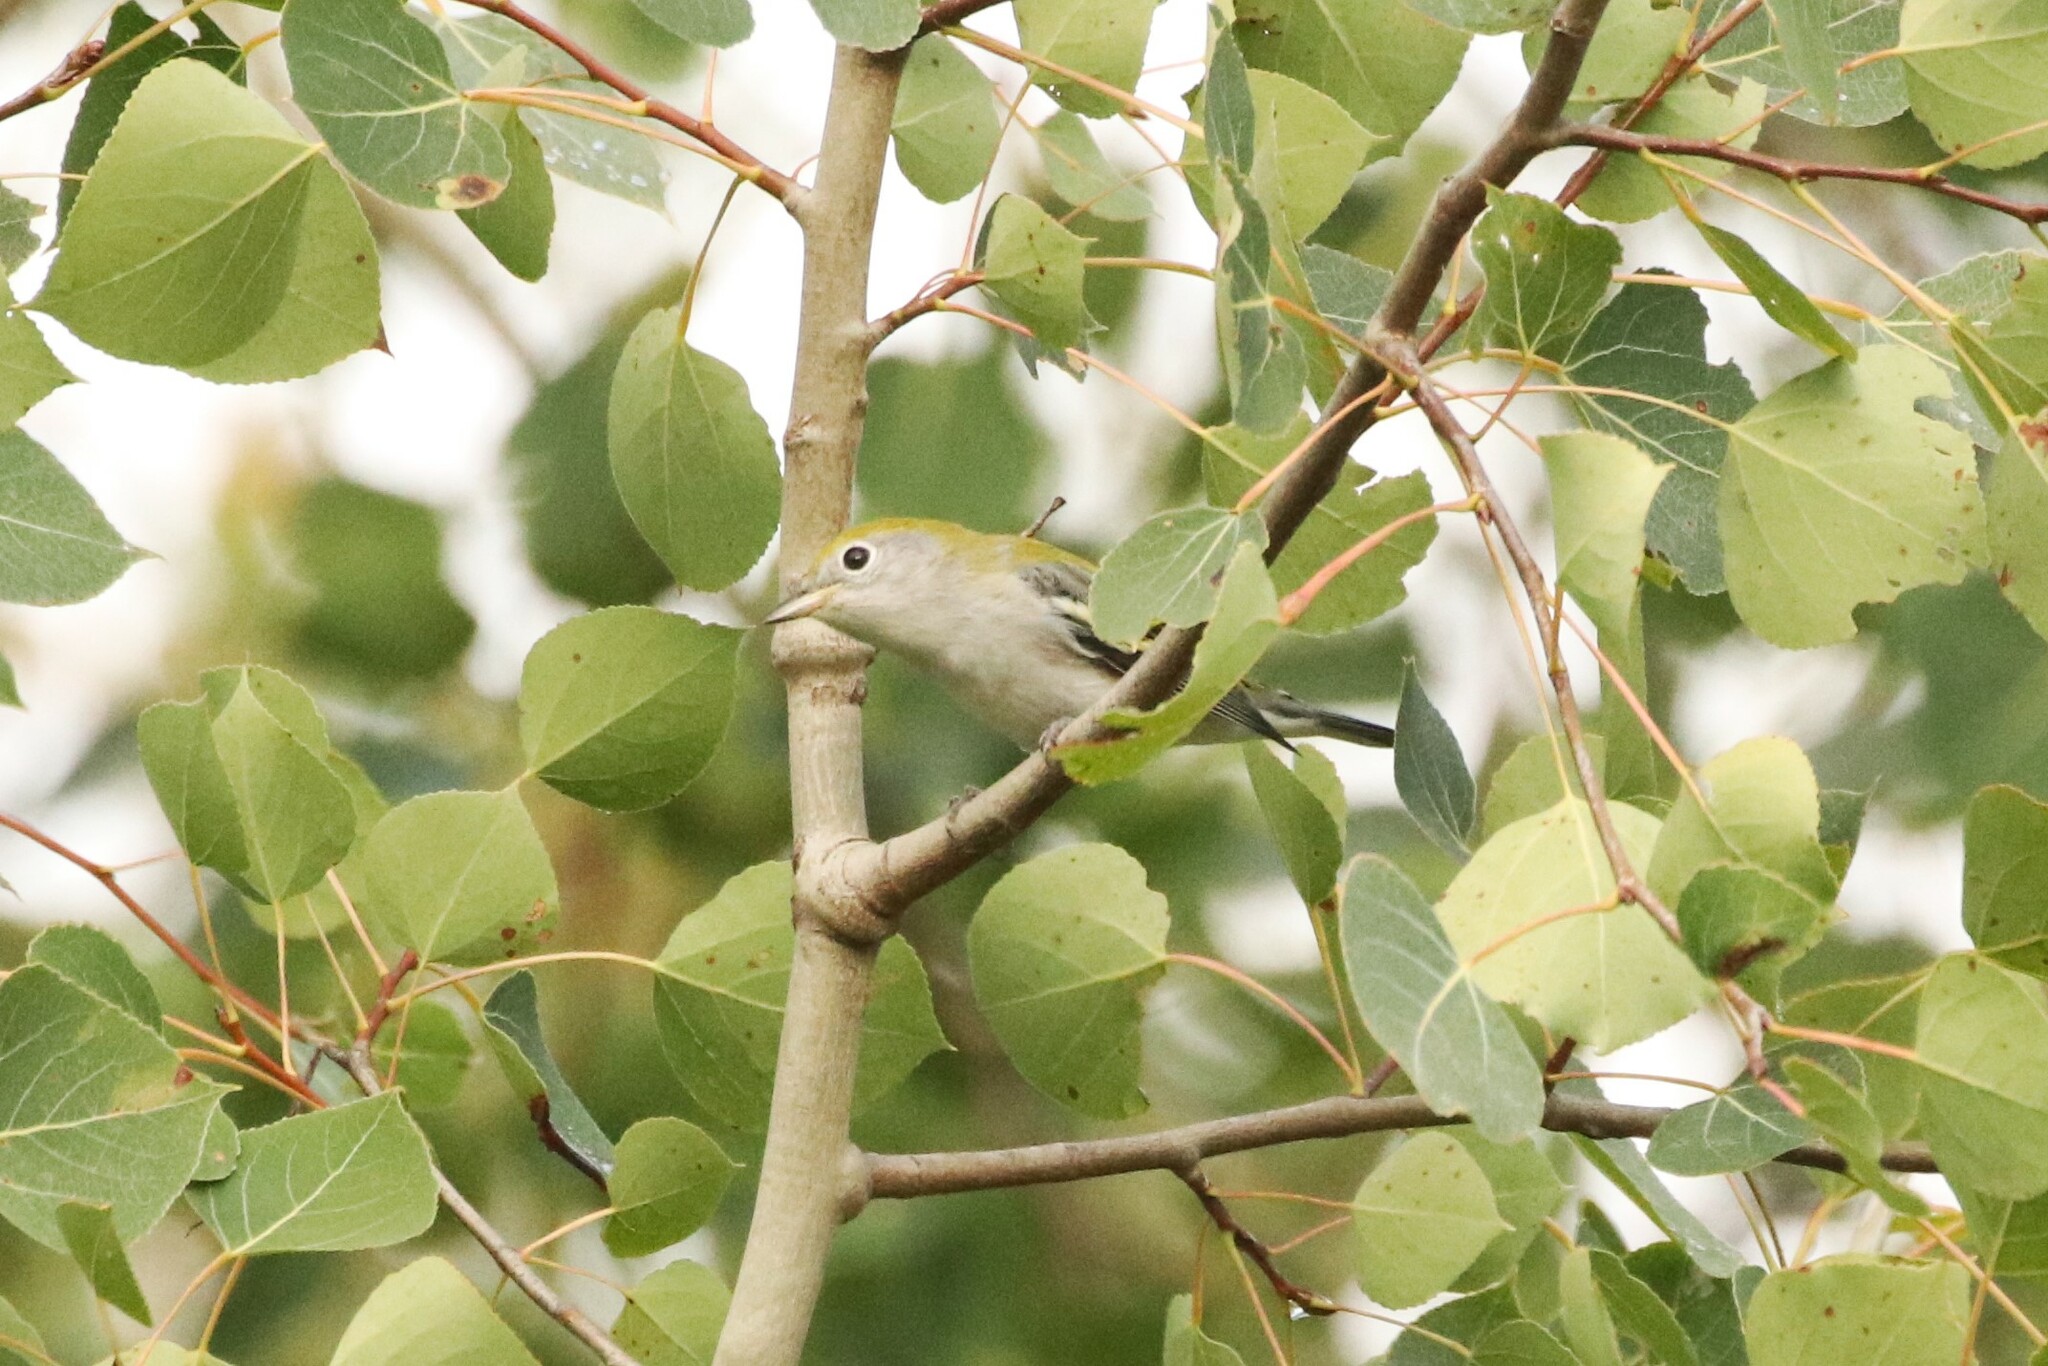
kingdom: Animalia
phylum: Chordata
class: Aves
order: Passeriformes
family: Parulidae
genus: Setophaga
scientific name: Setophaga pensylvanica
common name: Chestnut-sided warbler
